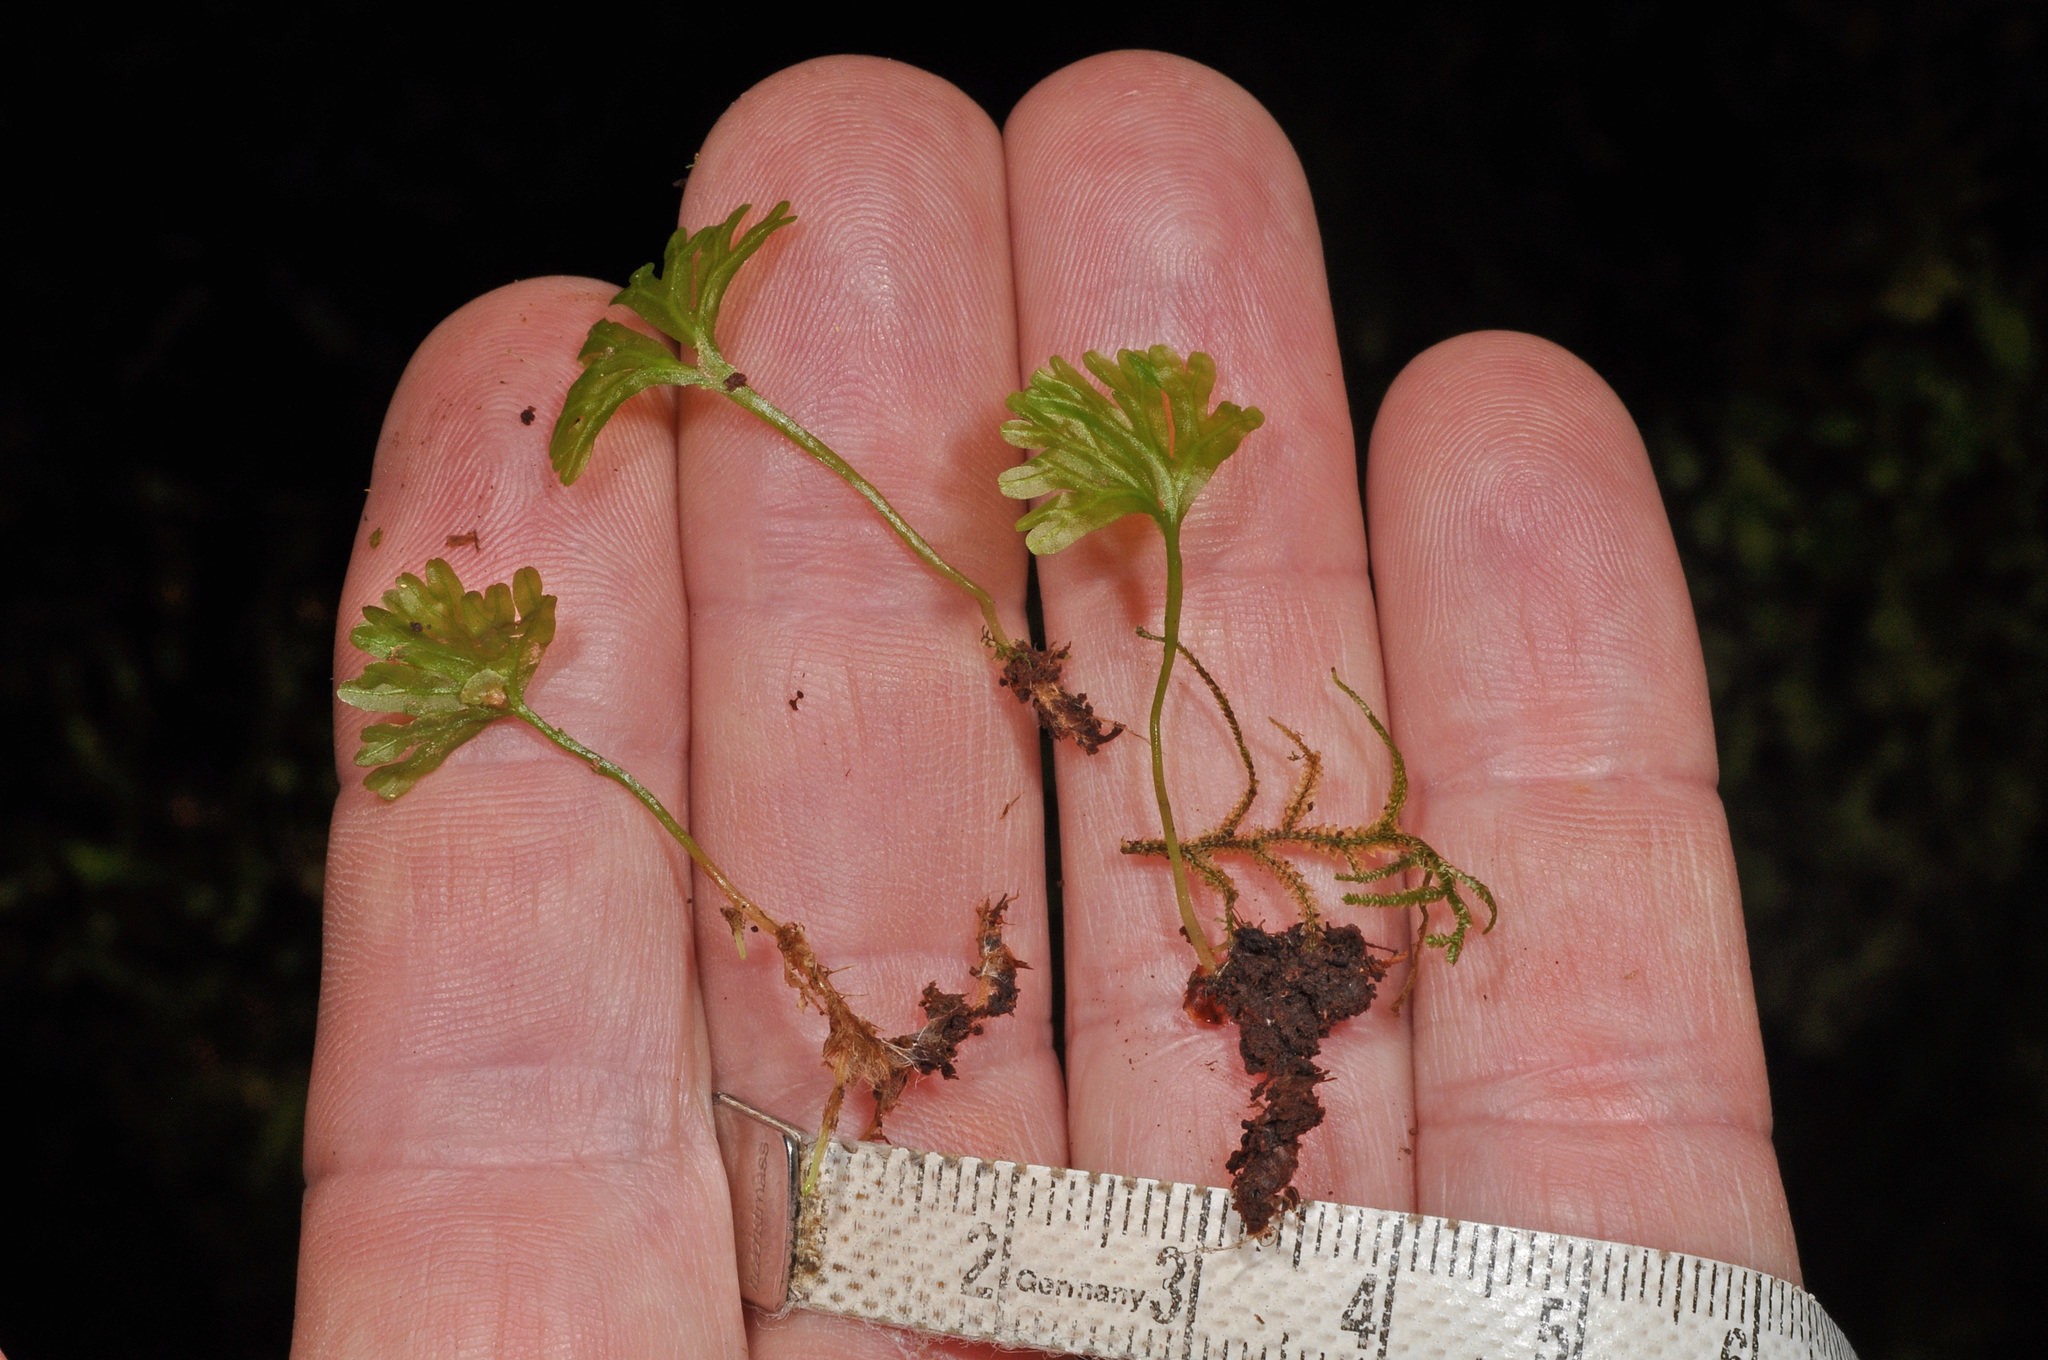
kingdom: Plantae
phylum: Marchantiophyta
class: Jungermanniopsida
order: Pallaviciniales
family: Hymenophytaceae
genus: Hymenophyton
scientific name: Hymenophyton flabellatum
